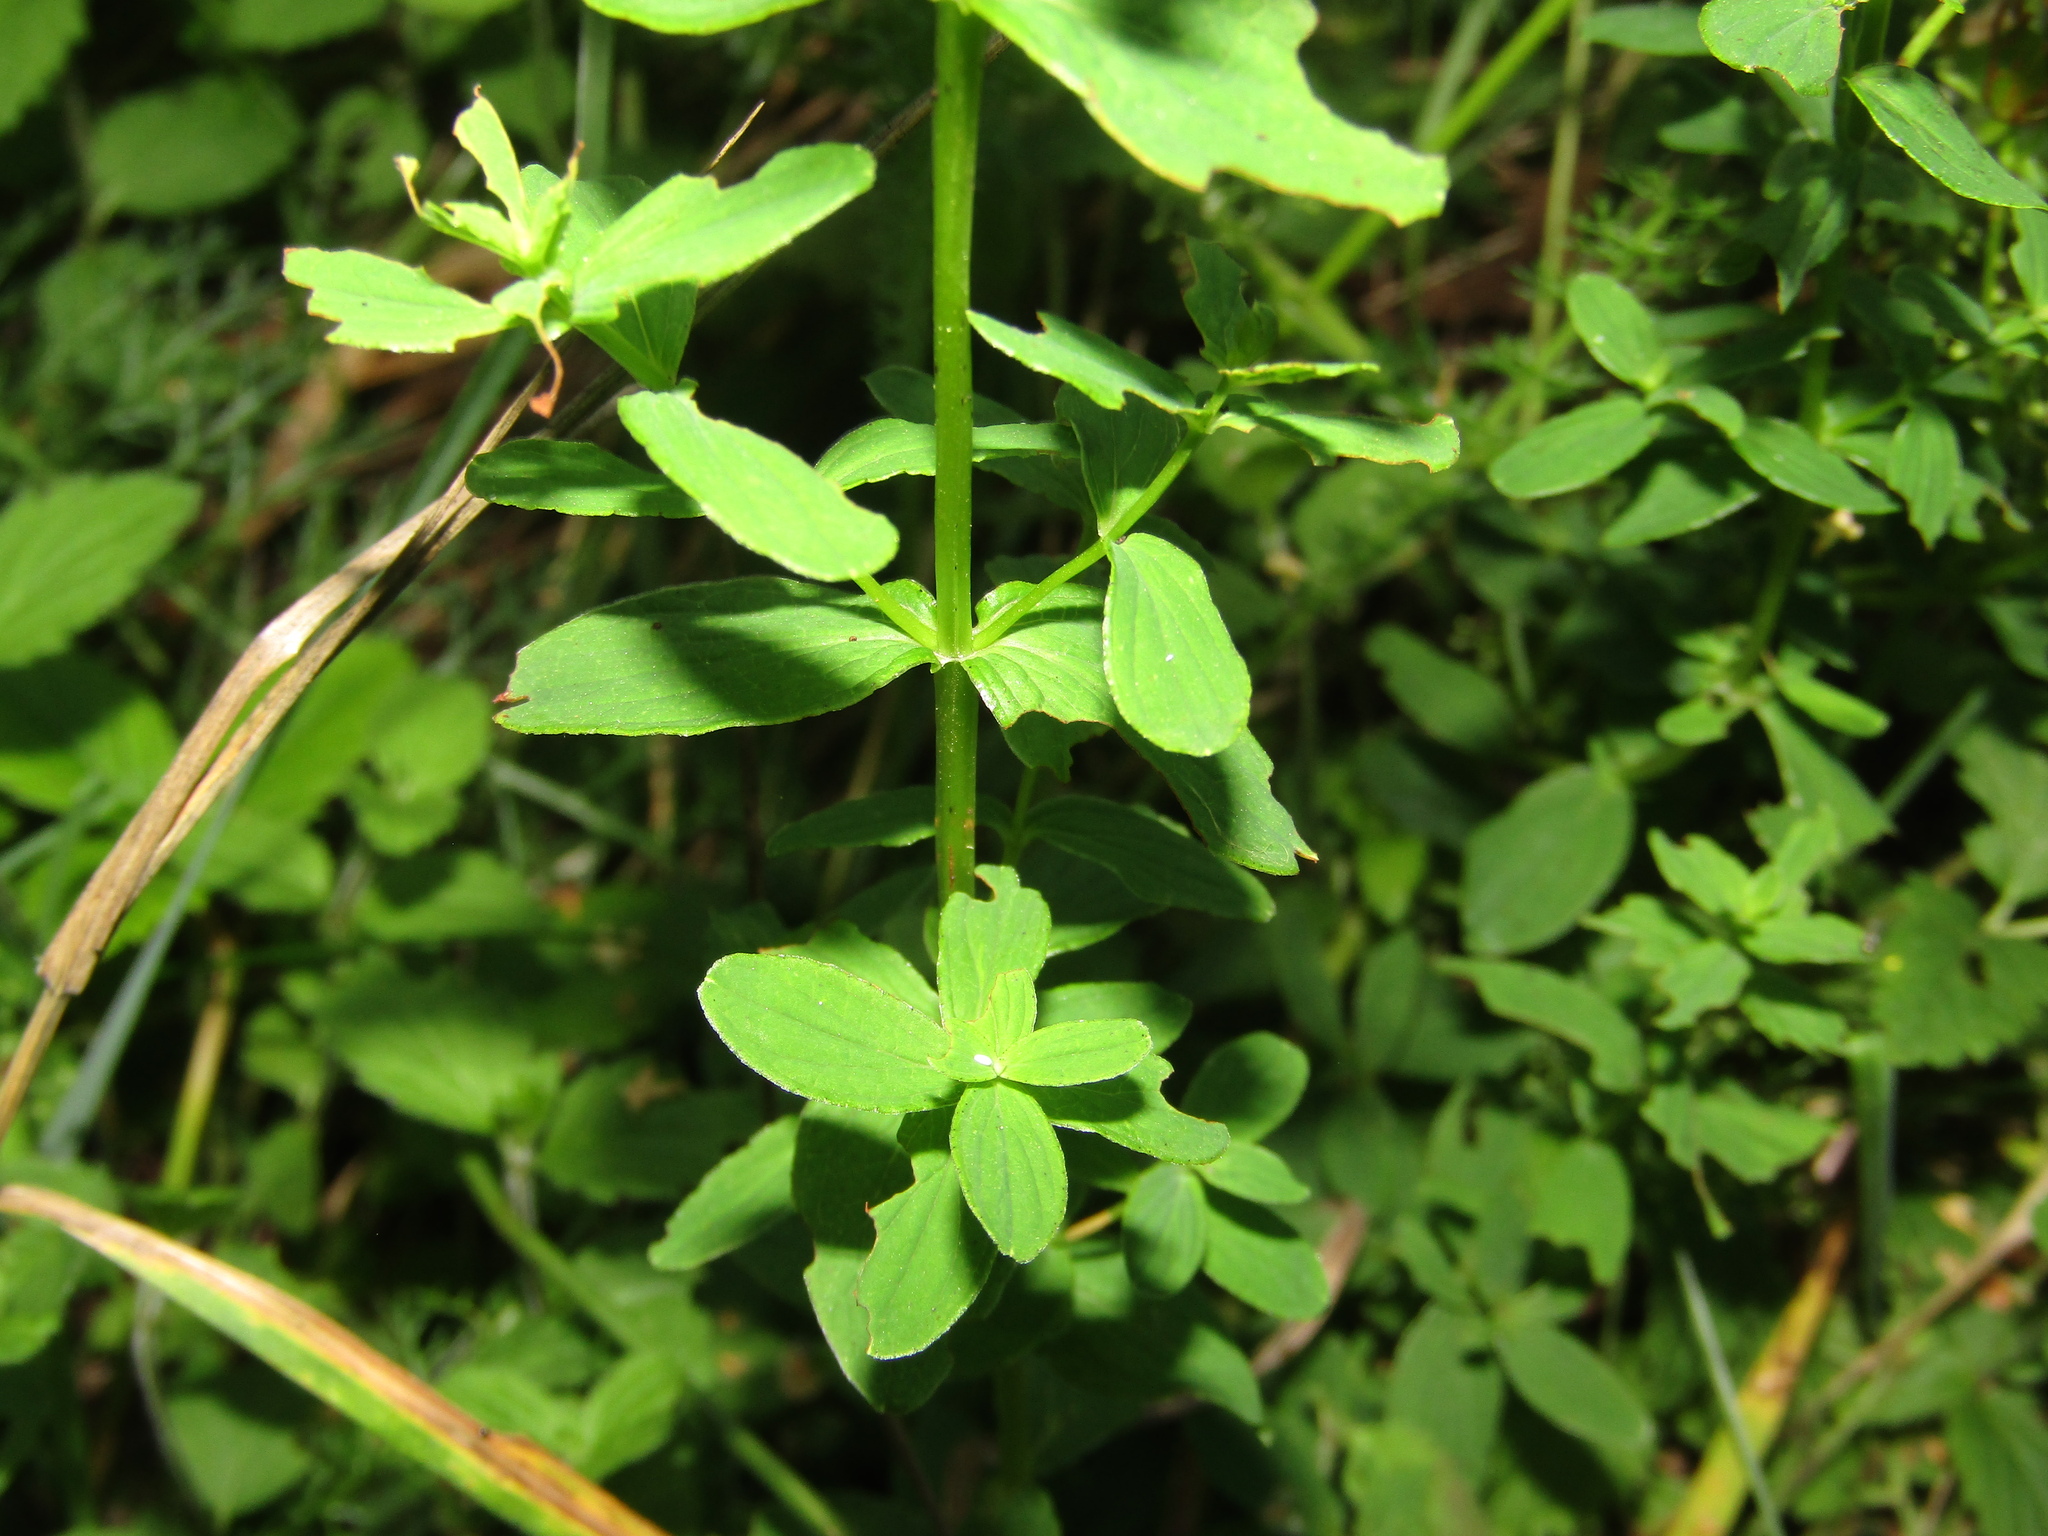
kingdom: Plantae
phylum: Tracheophyta
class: Magnoliopsida
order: Malpighiales
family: Hypericaceae
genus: Hypericum
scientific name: Hypericum maculatum
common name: Imperforate st. john's-wort
